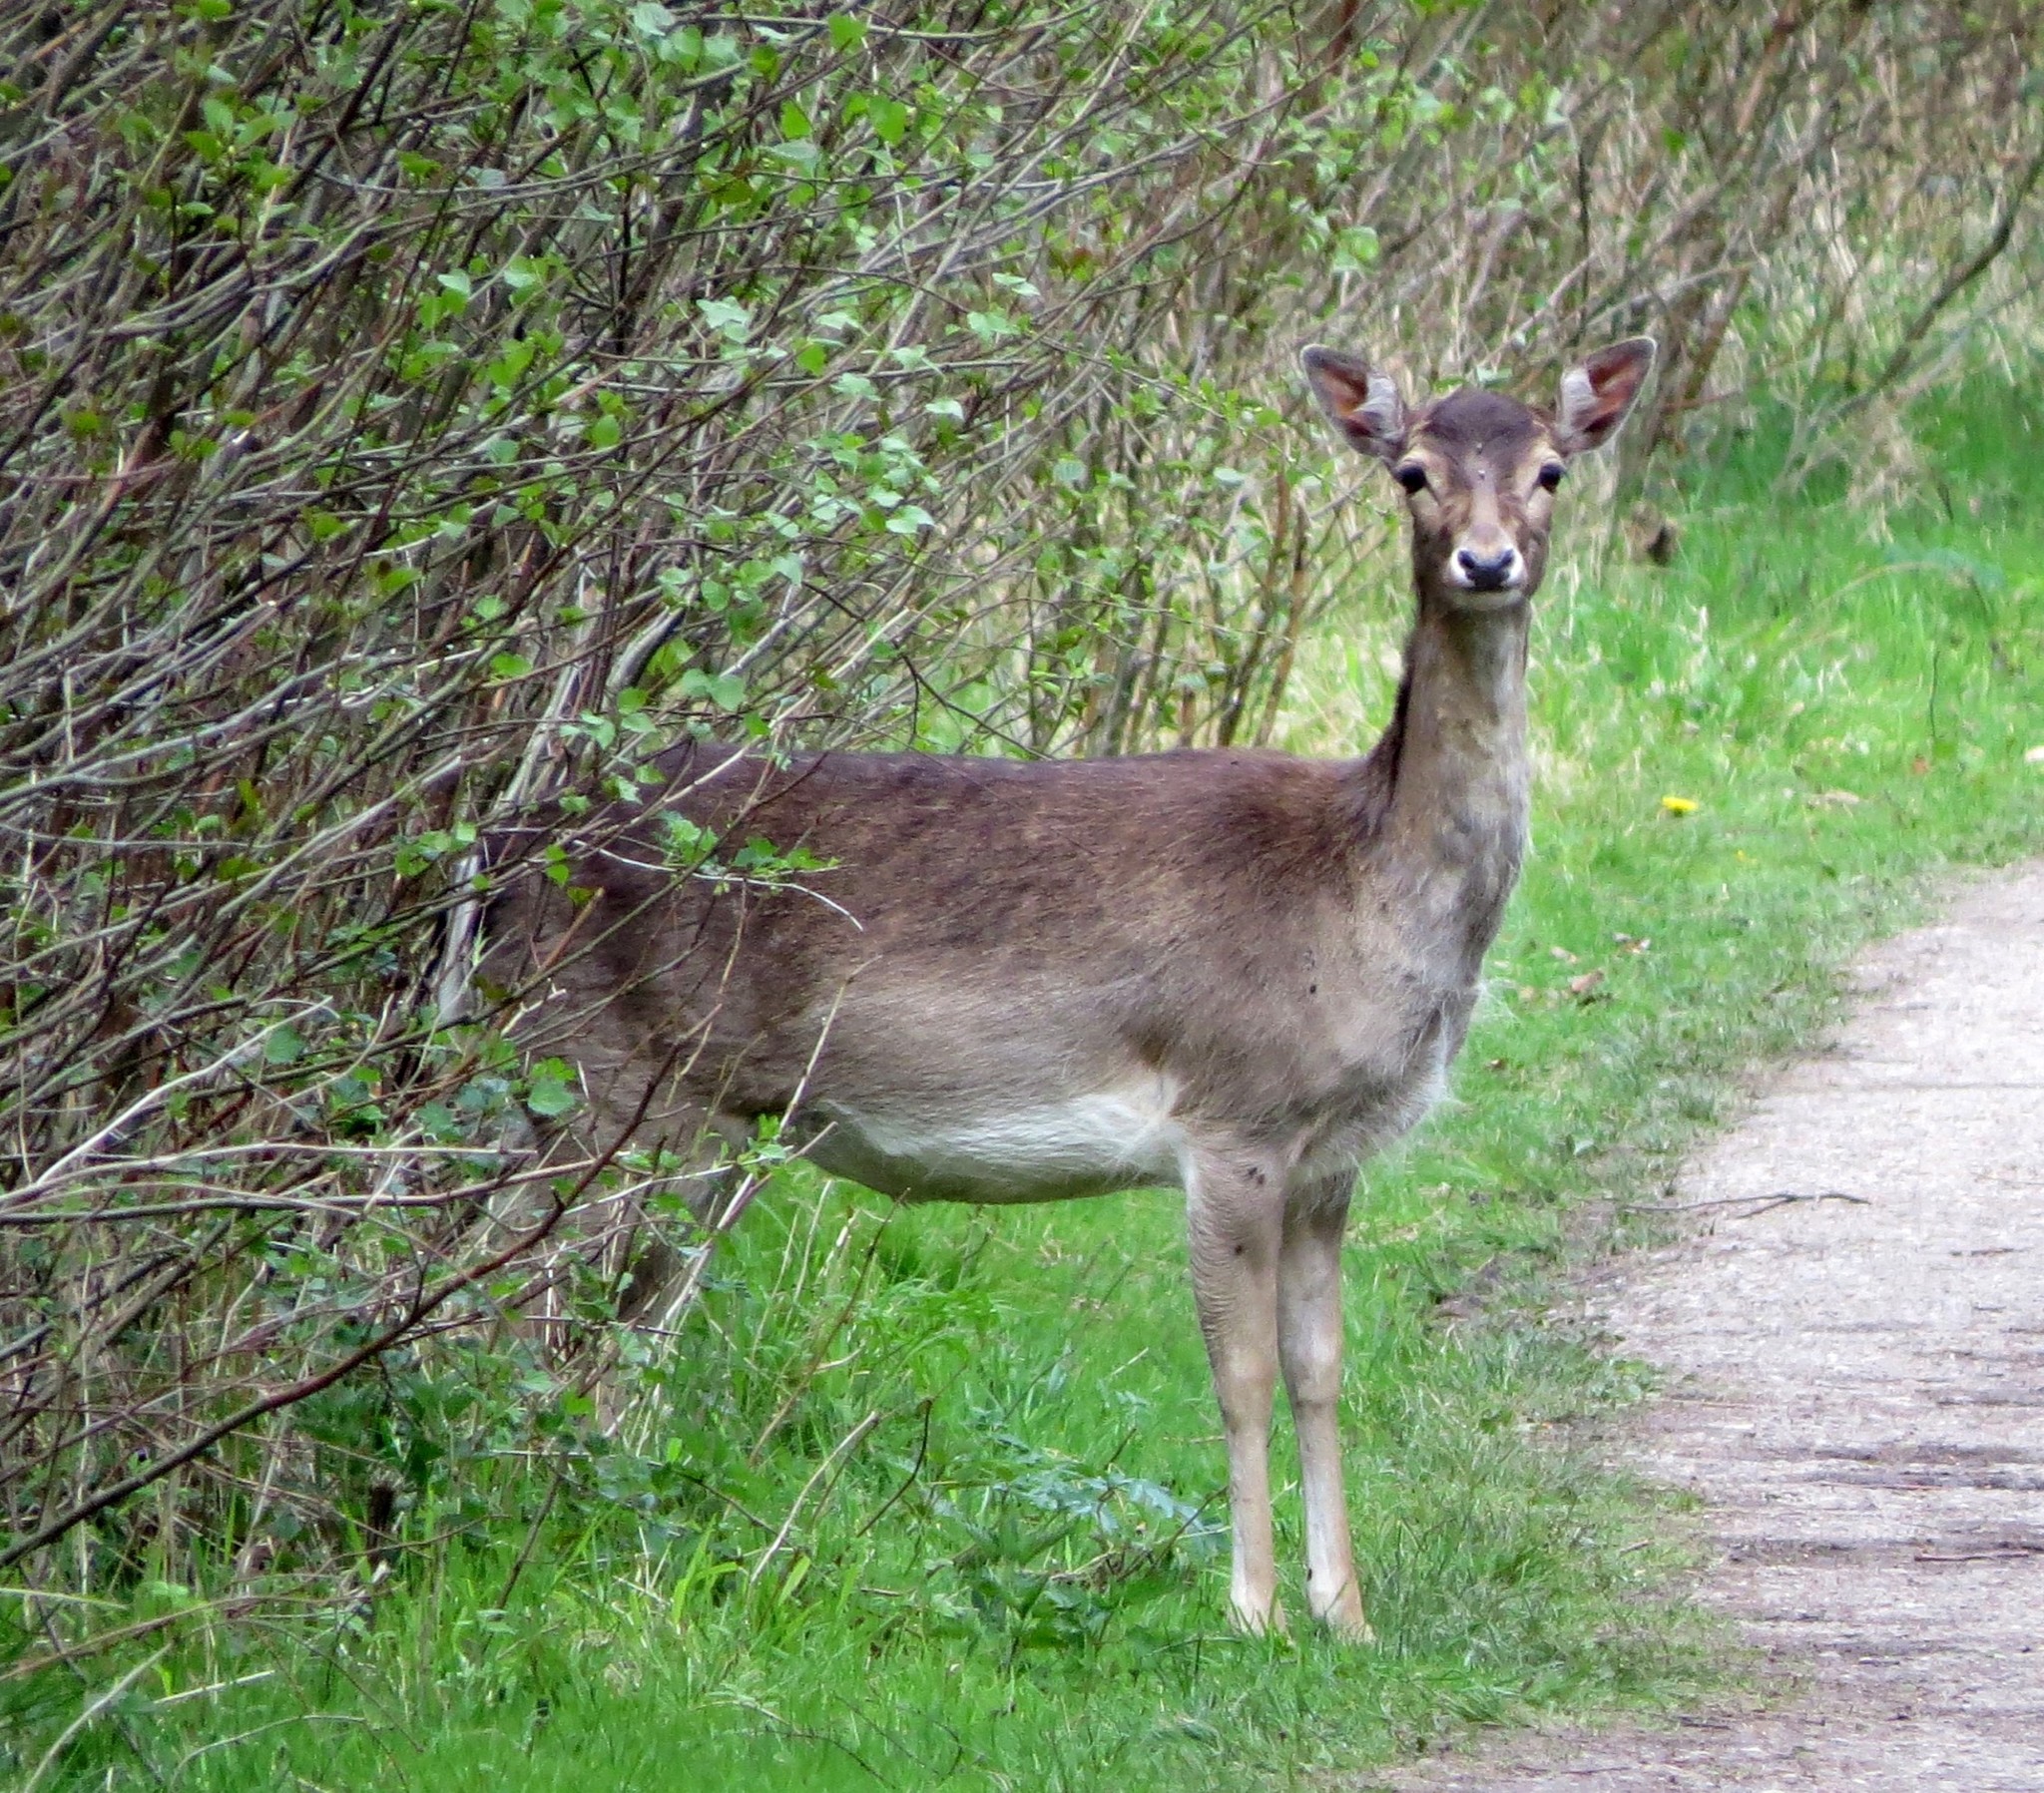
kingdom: Animalia
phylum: Chordata
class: Mammalia
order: Artiodactyla
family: Cervidae
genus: Dama
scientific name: Dama dama
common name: Fallow deer
